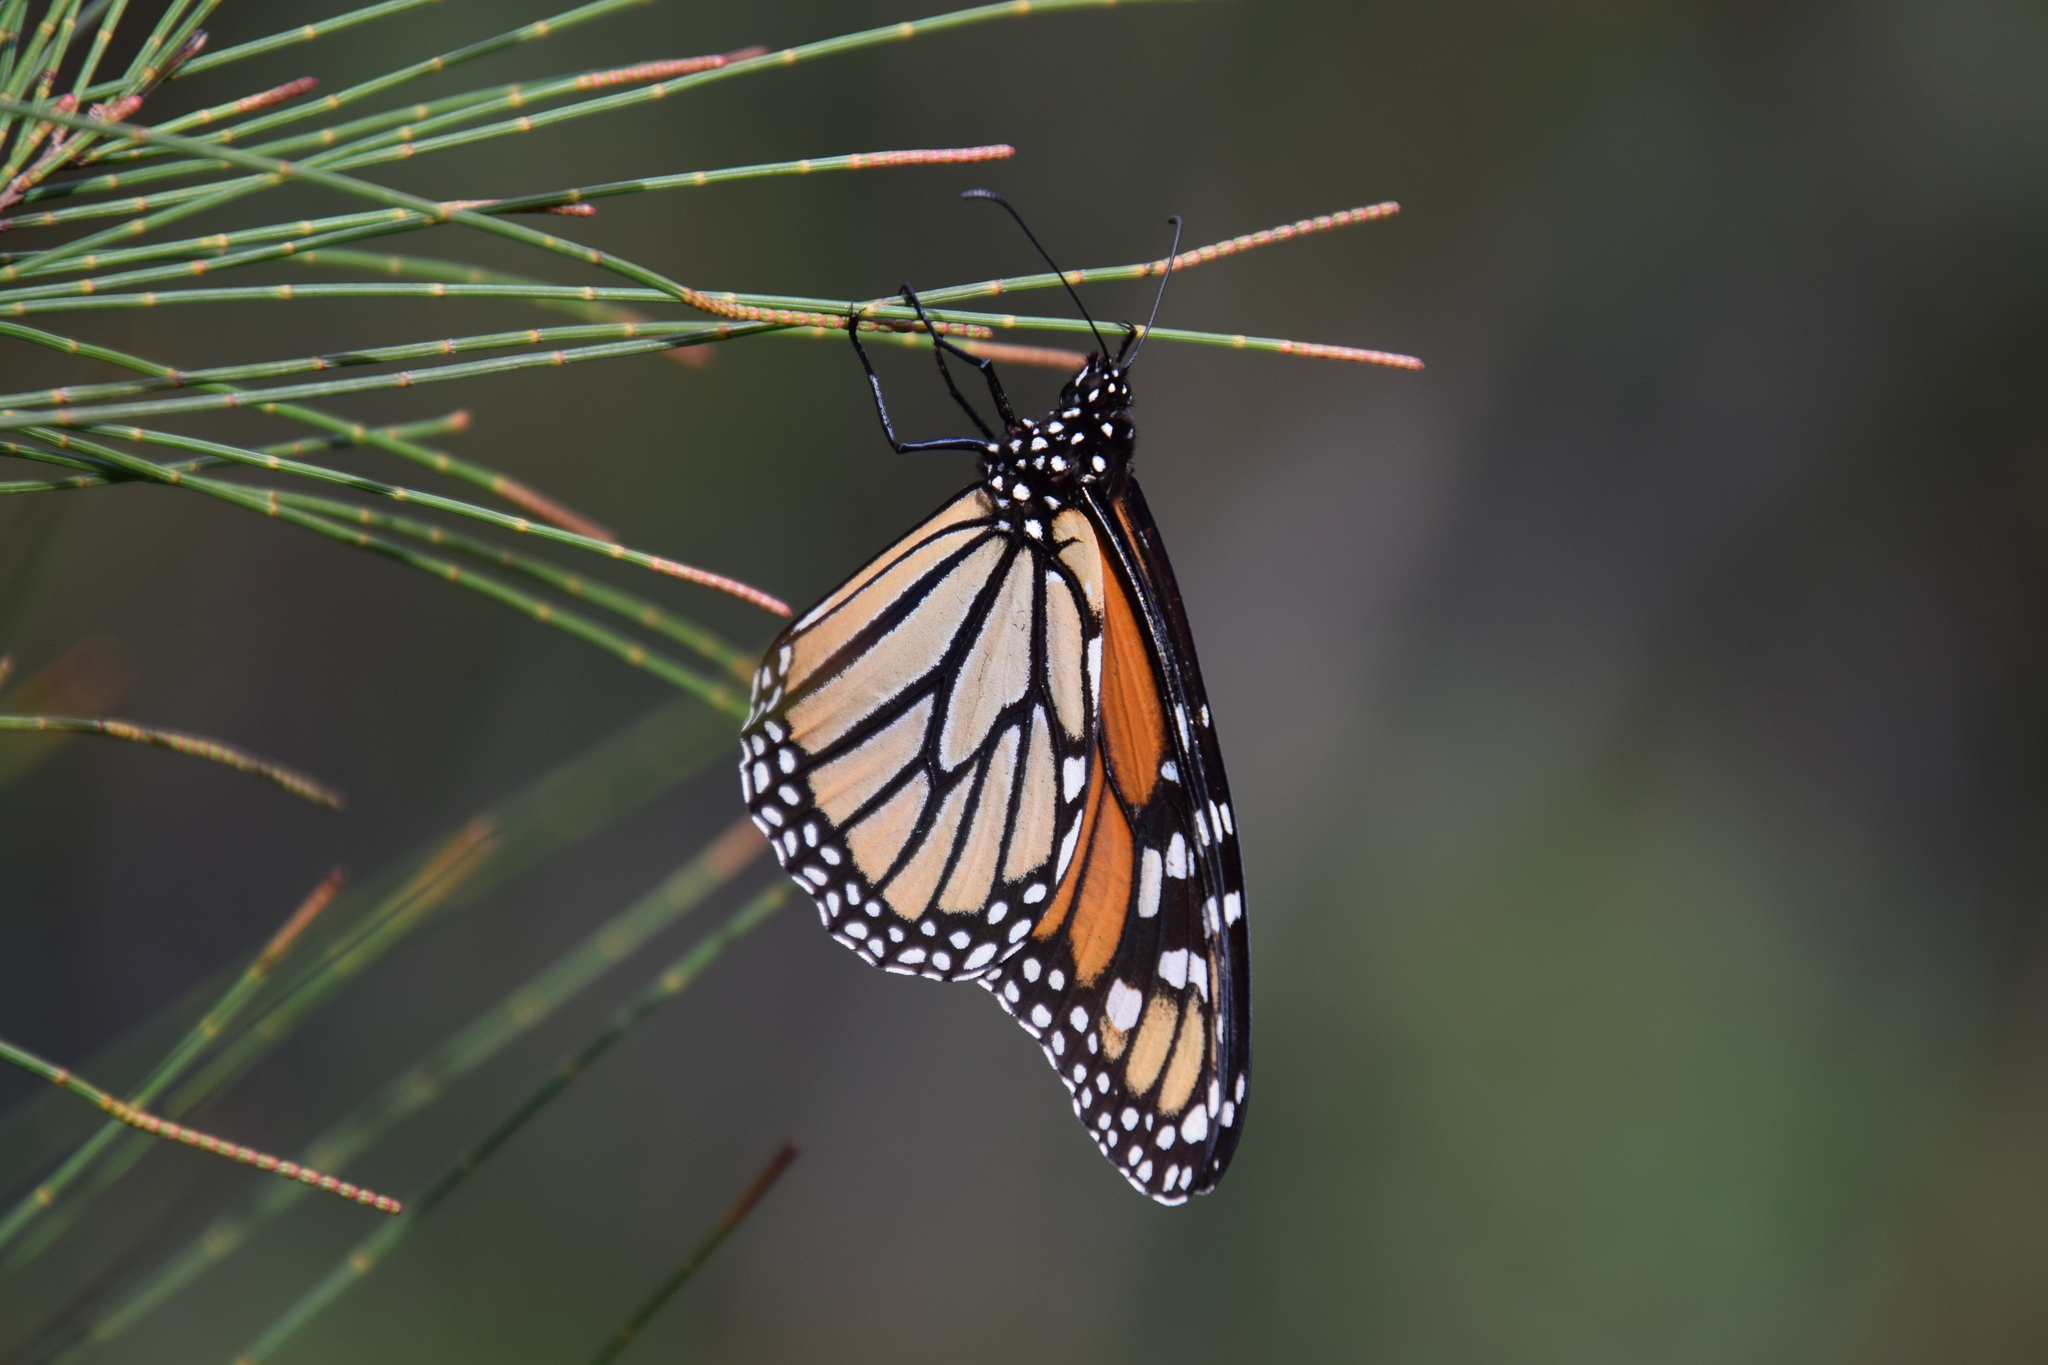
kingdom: Animalia
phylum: Arthropoda
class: Insecta
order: Lepidoptera
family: Nymphalidae
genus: Danaus
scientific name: Danaus plexippus
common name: Monarch
